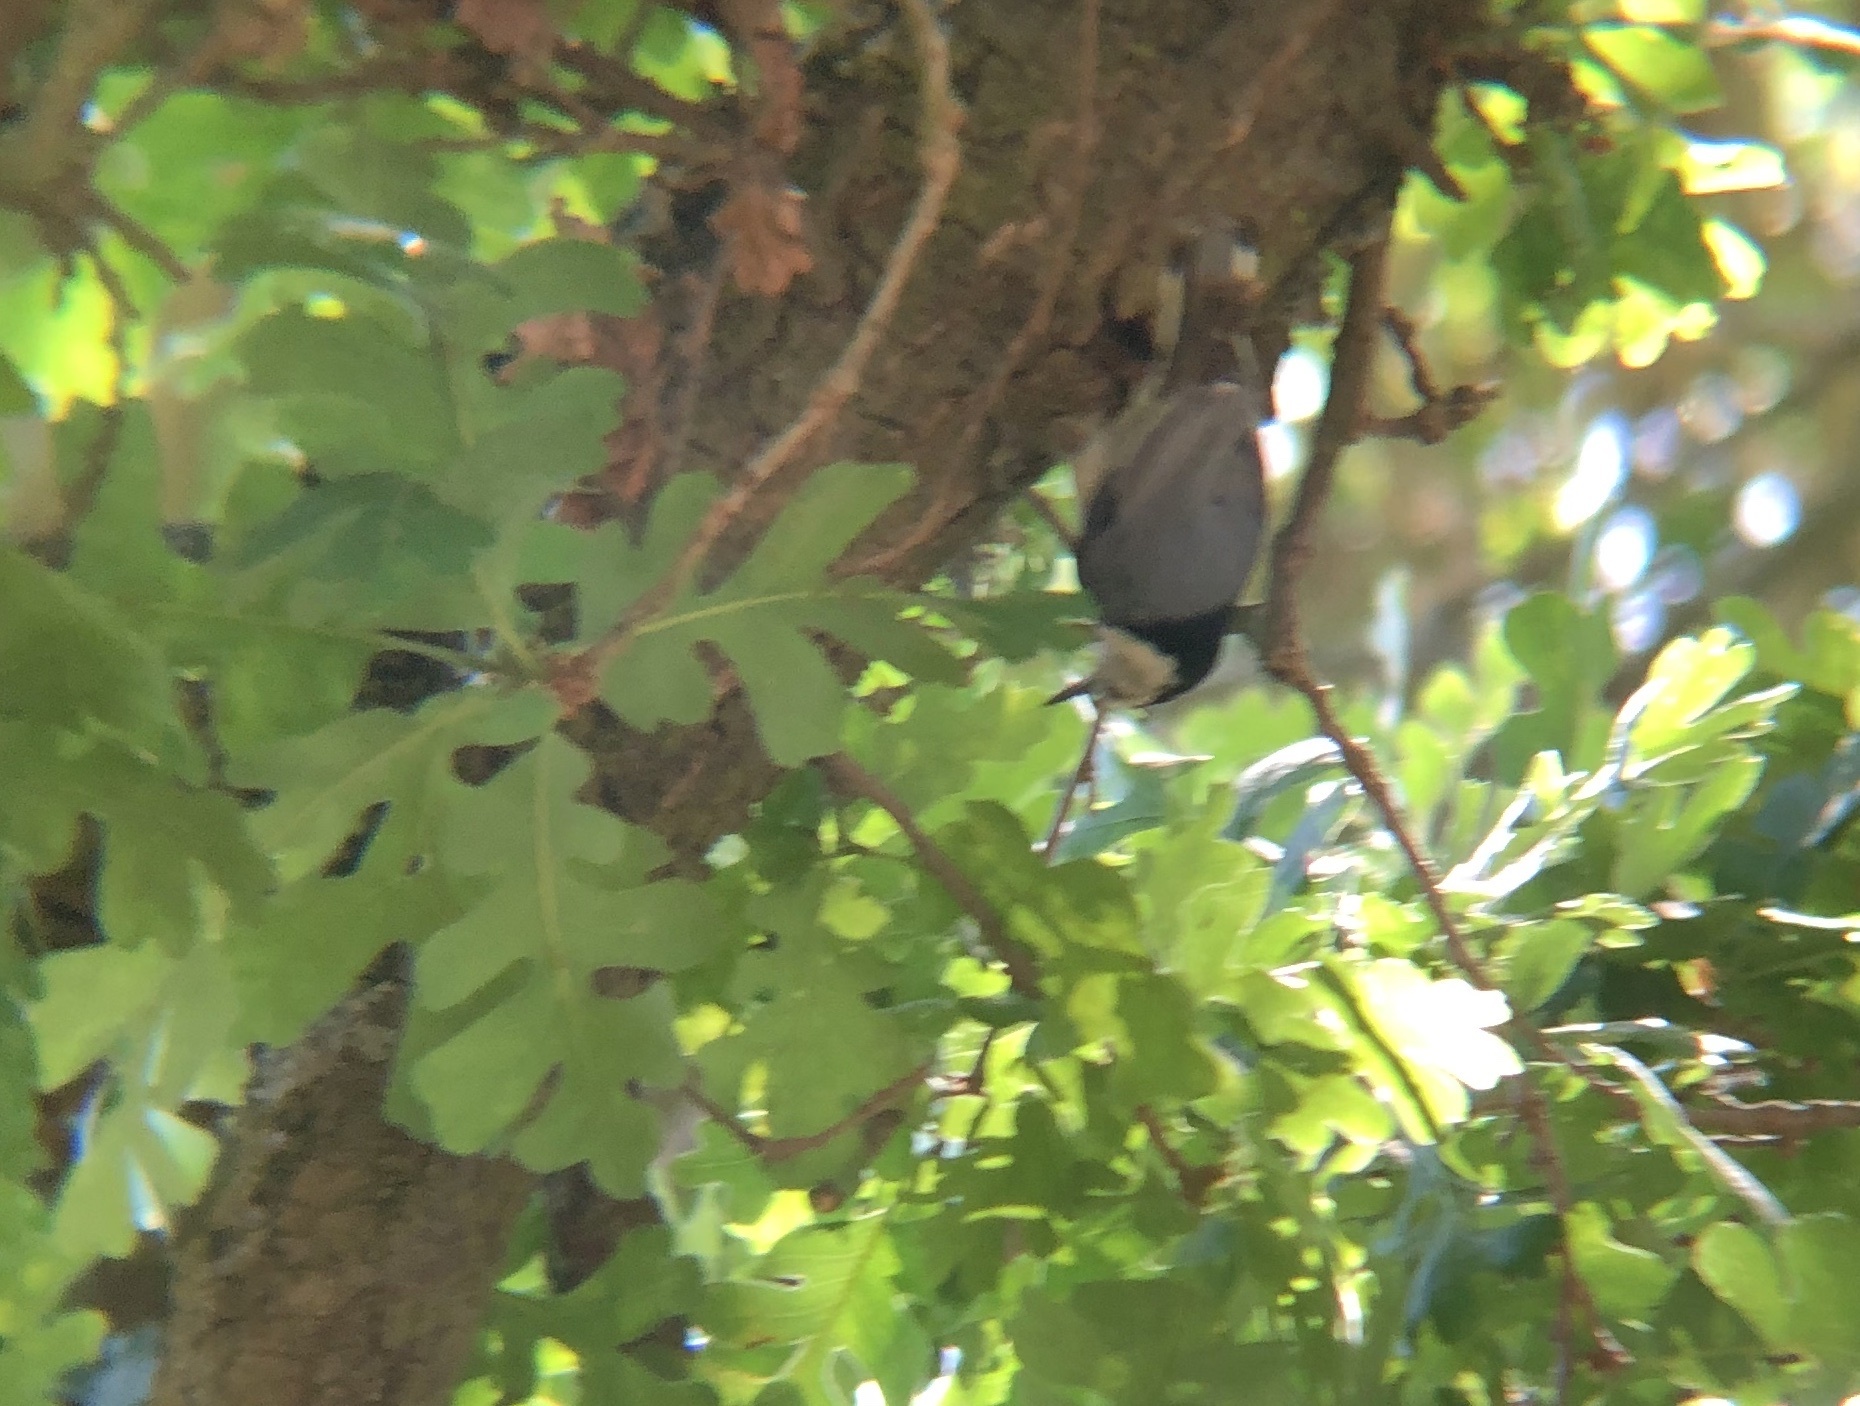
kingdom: Animalia
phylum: Chordata
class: Aves
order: Passeriformes
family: Sittidae
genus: Sitta
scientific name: Sitta carolinensis
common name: White-breasted nuthatch
